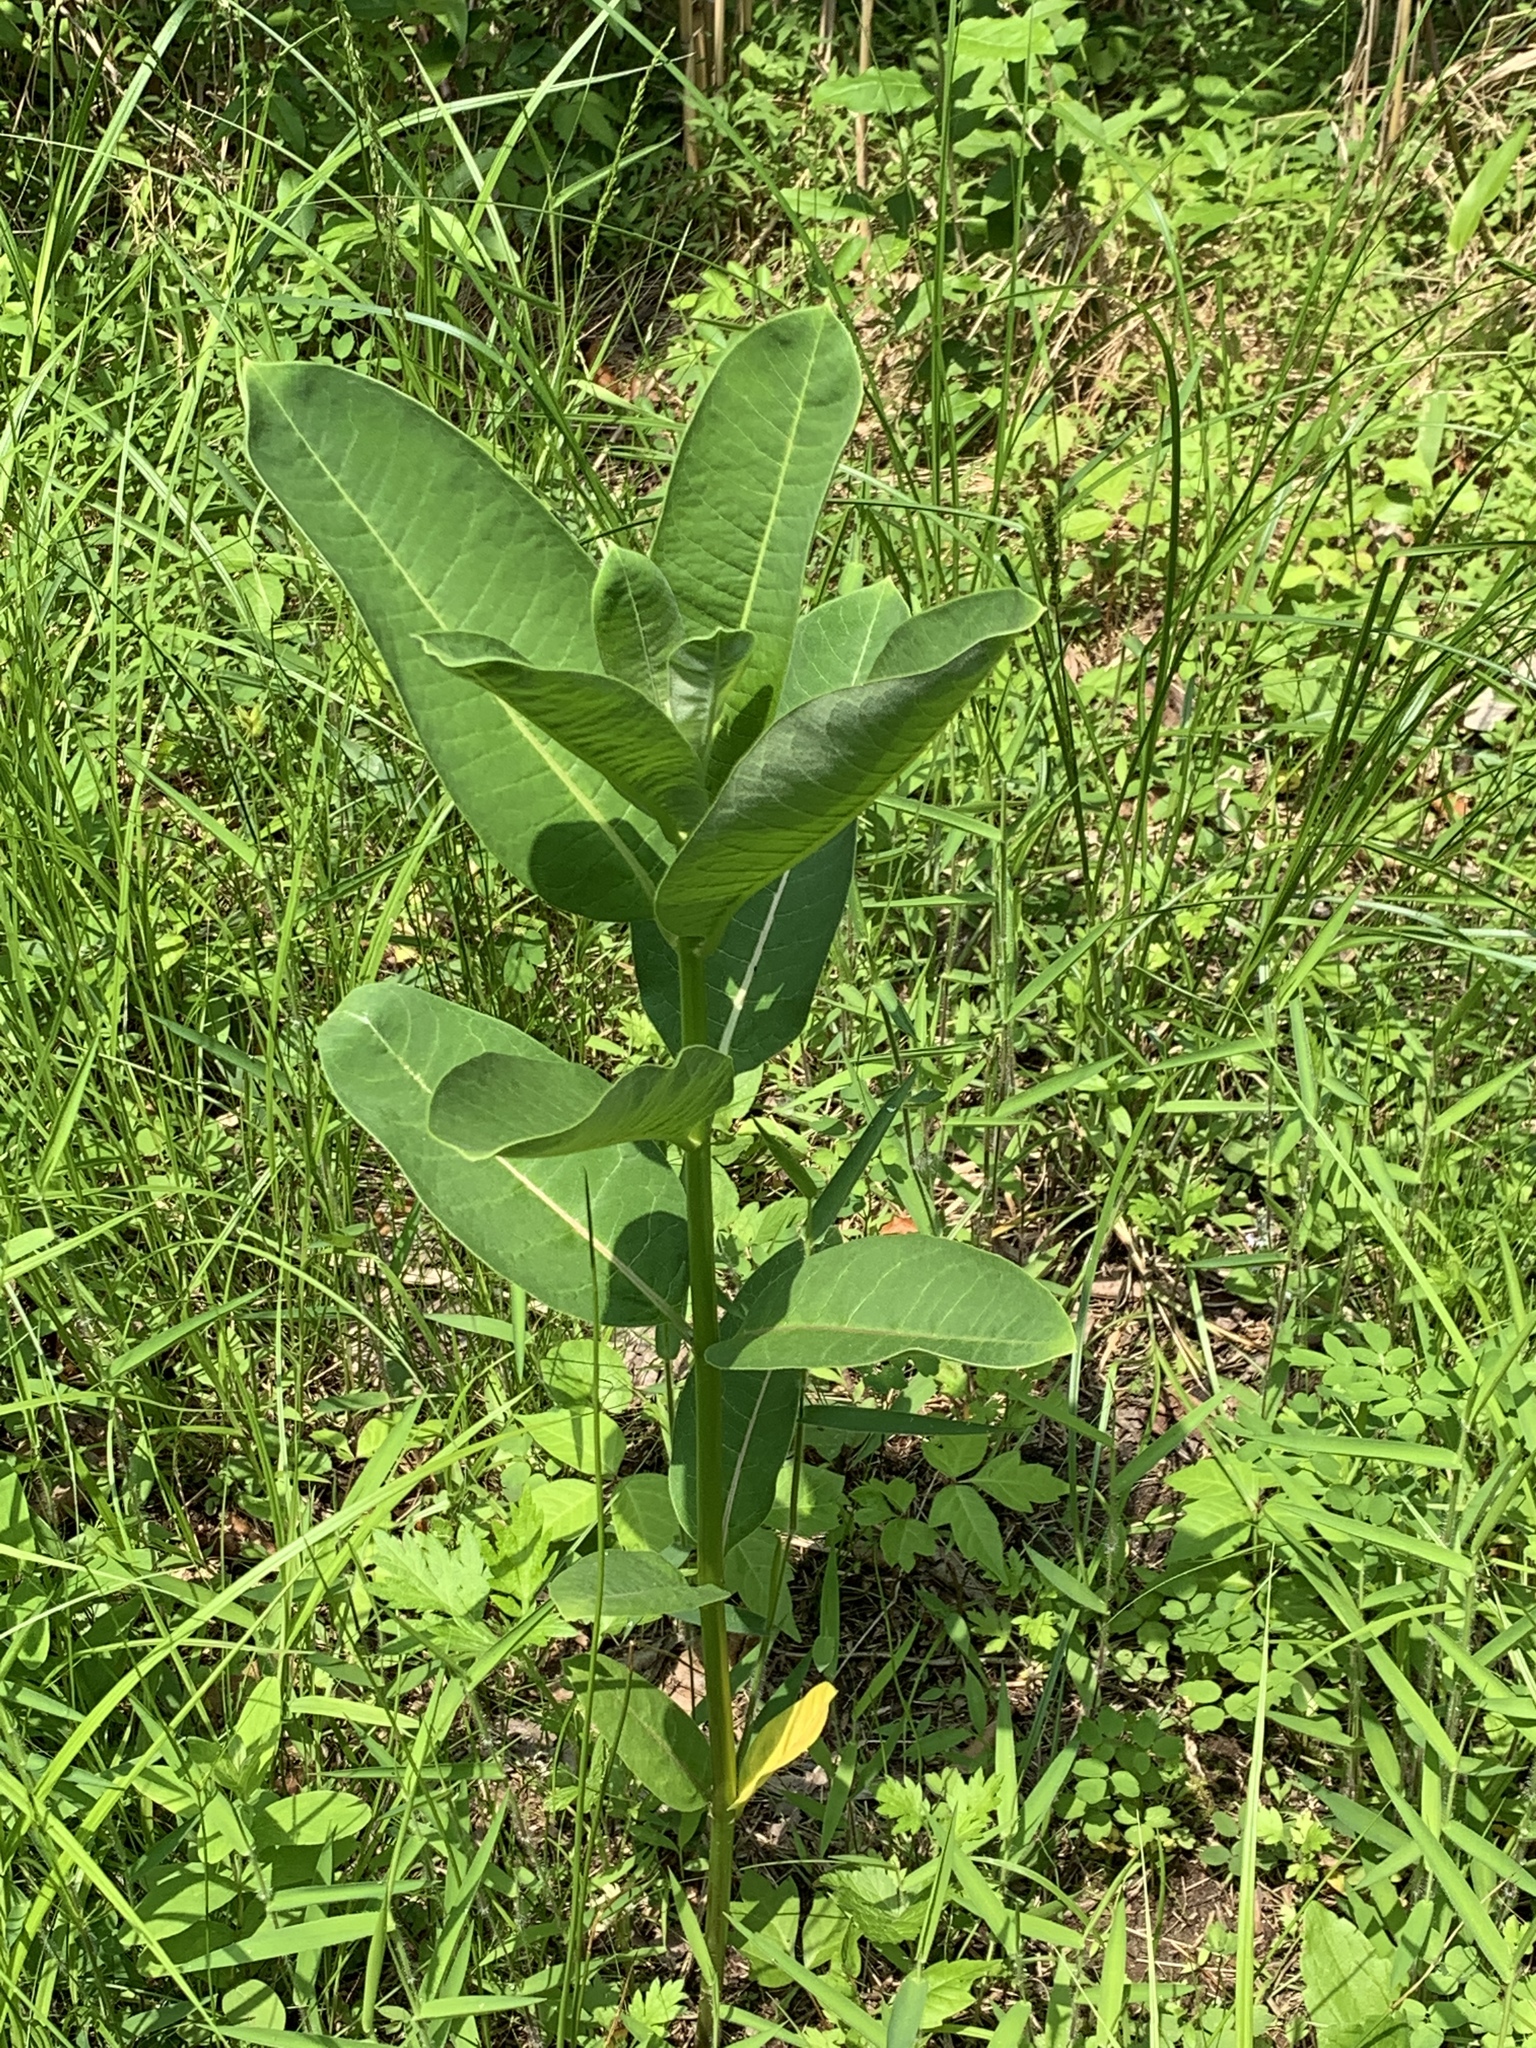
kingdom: Plantae
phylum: Tracheophyta
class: Magnoliopsida
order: Gentianales
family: Apocynaceae
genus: Asclepias
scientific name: Asclepias syriaca
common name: Common milkweed
